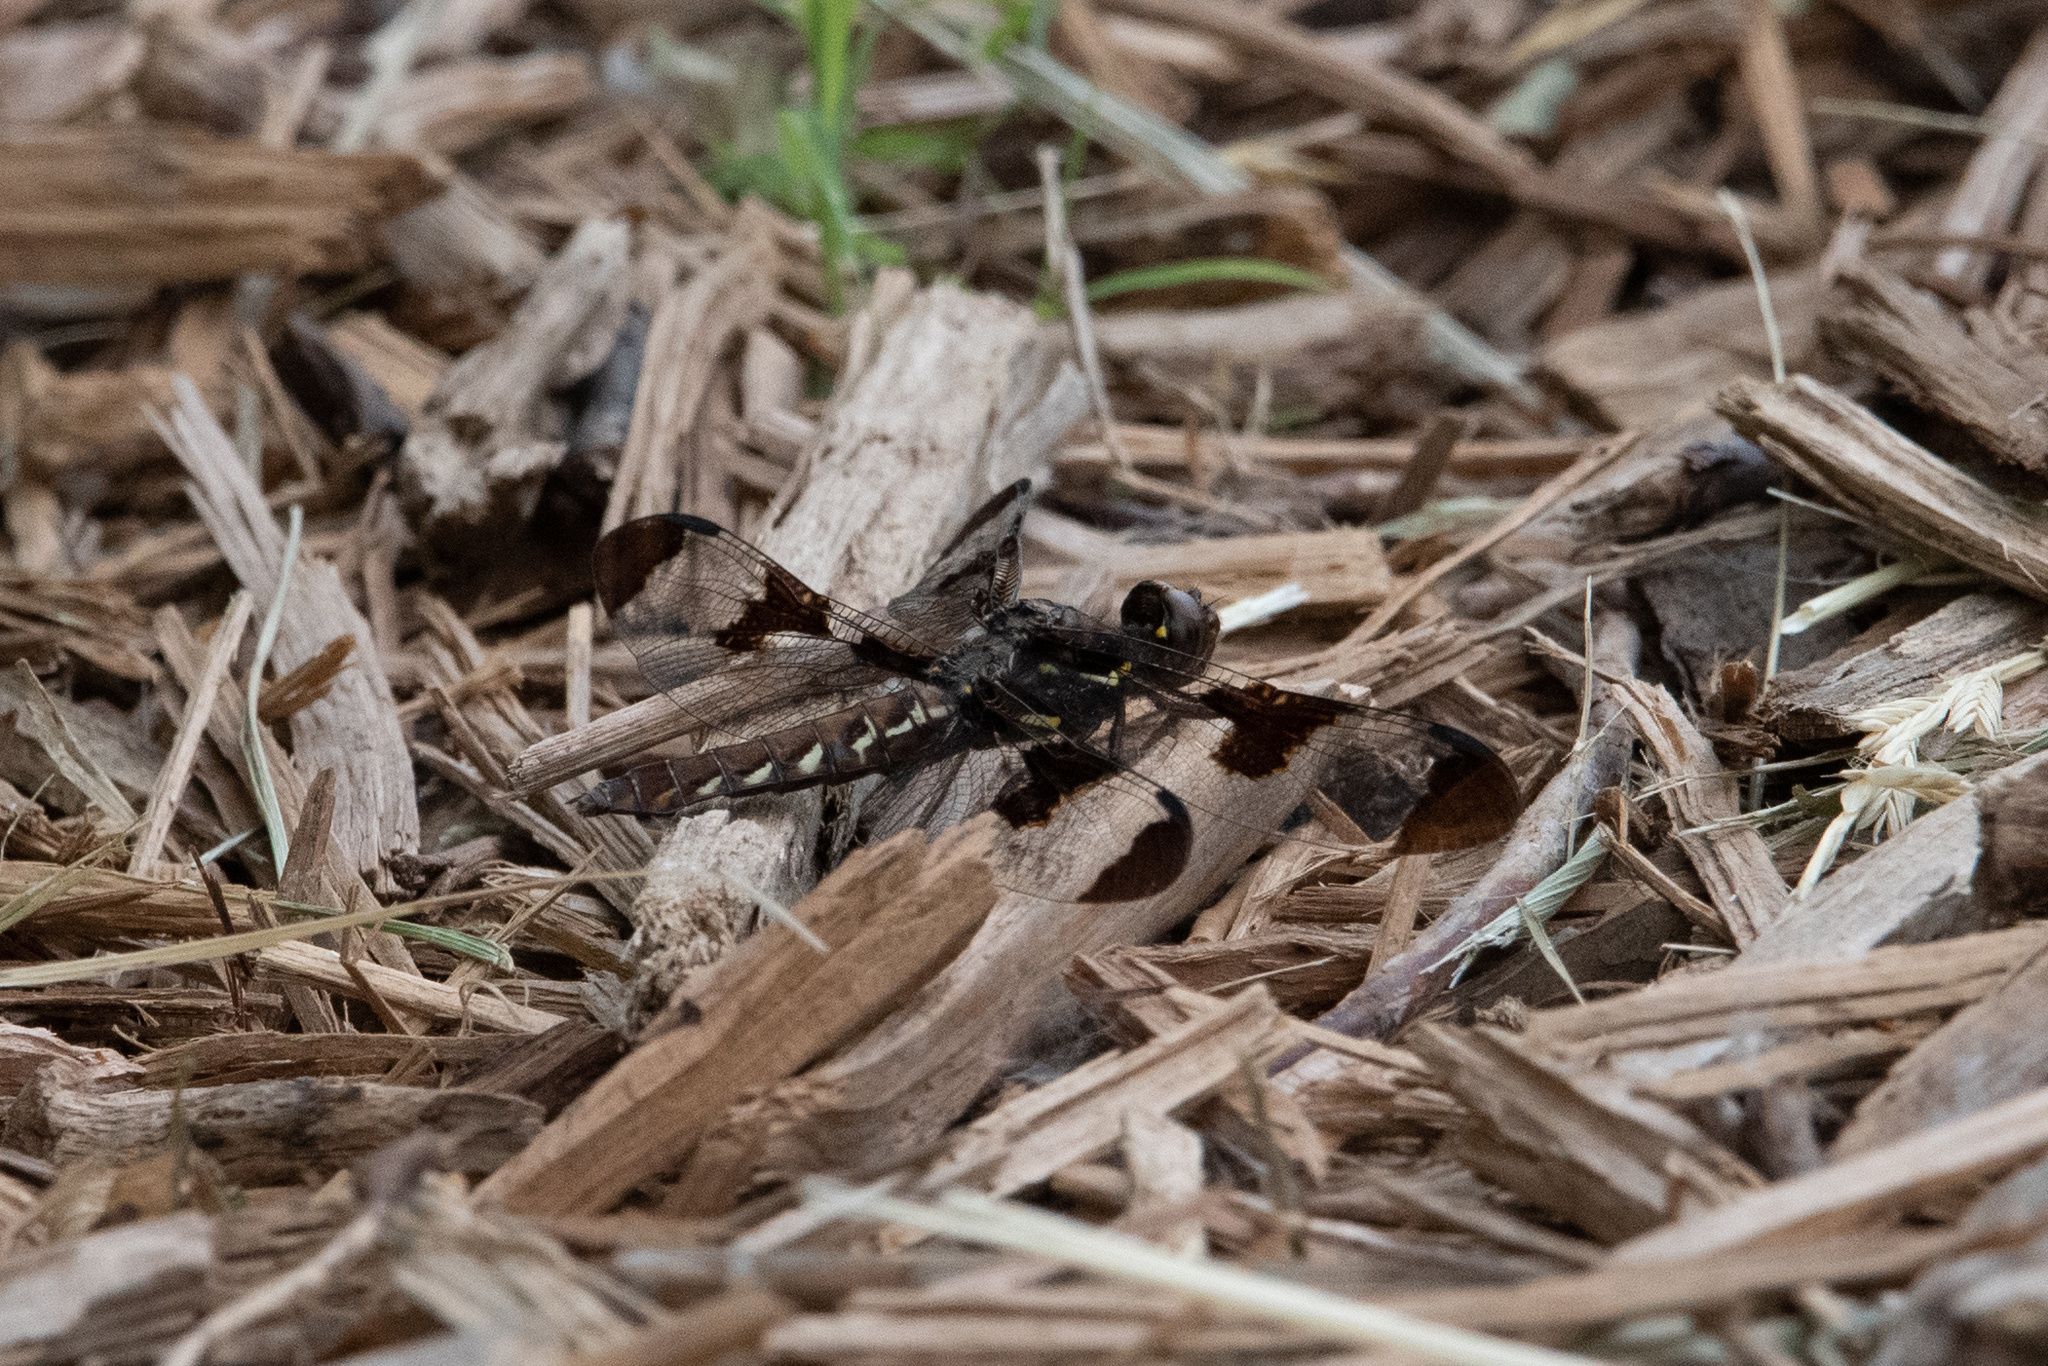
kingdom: Animalia
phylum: Arthropoda
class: Insecta
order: Odonata
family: Libellulidae
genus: Plathemis
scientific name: Plathemis lydia
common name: Common whitetail
